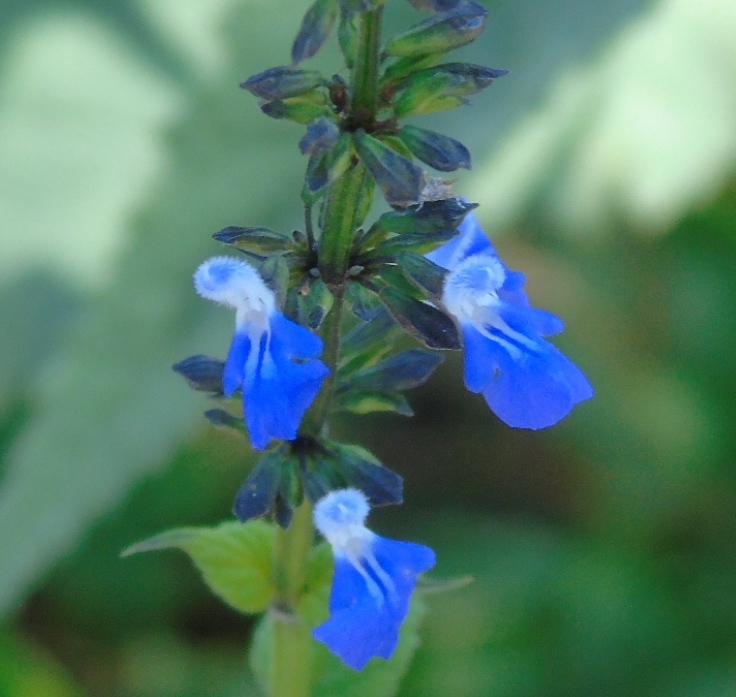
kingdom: Plantae
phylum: Tracheophyta
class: Magnoliopsida
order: Lamiales
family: Lamiaceae
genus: Salvia
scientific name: Salvia languidula
